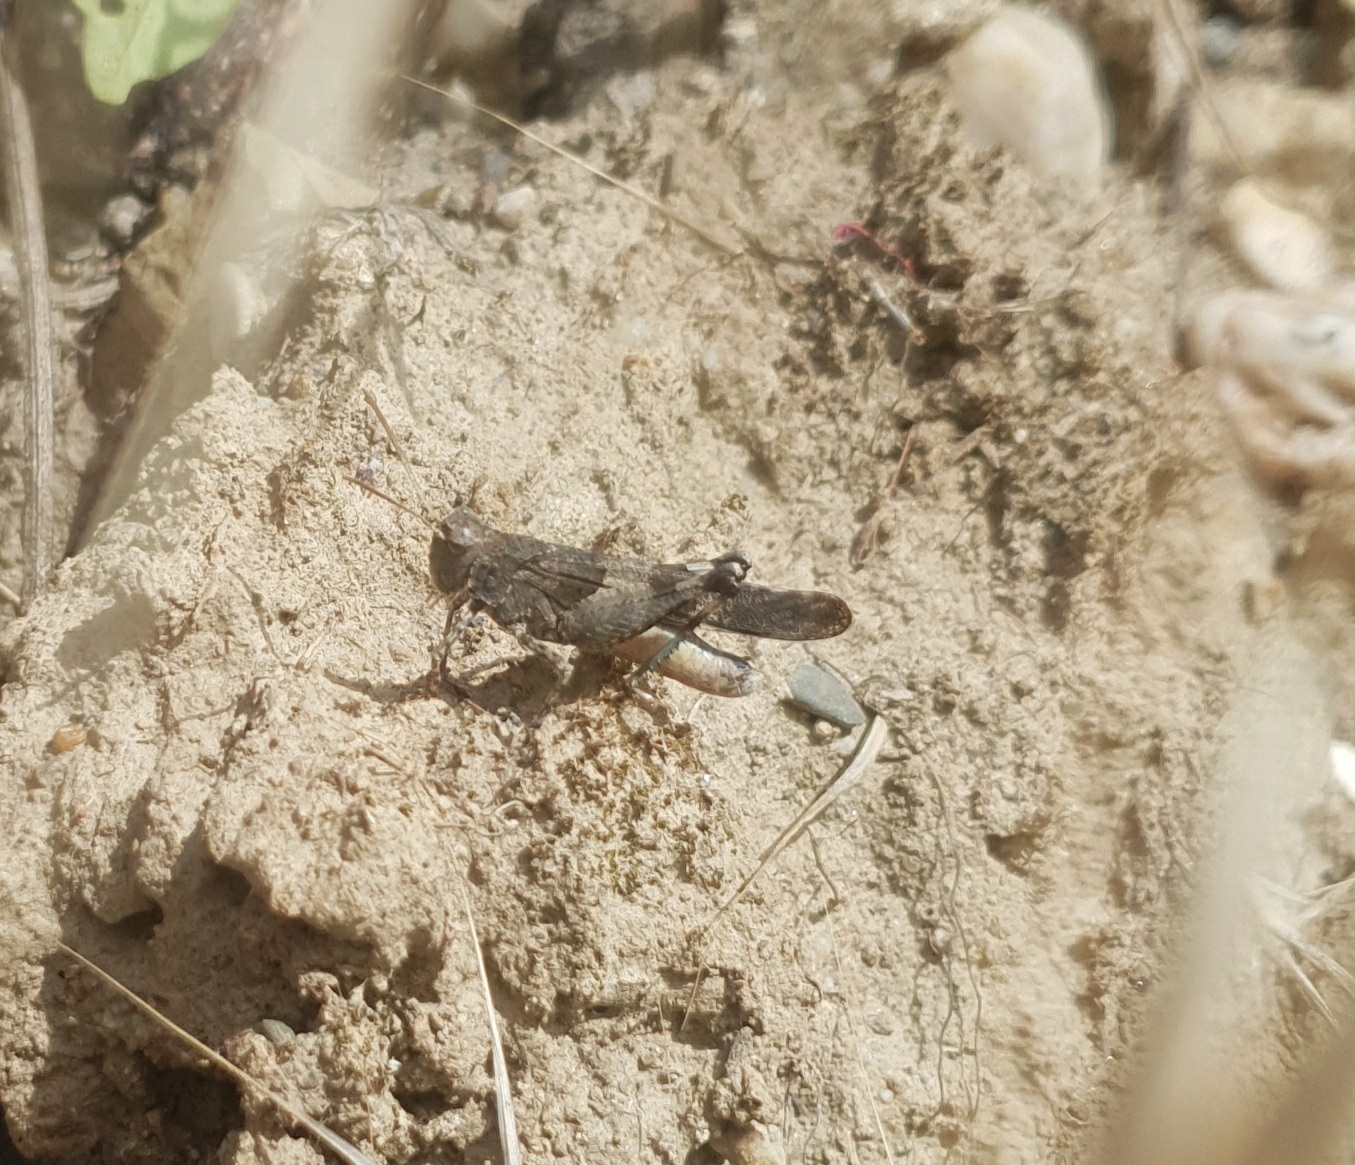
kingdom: Animalia
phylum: Arthropoda
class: Insecta
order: Orthoptera
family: Acrididae
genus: Oedipoda
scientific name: Oedipoda caerulescens
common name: Blue-winged grasshopper
